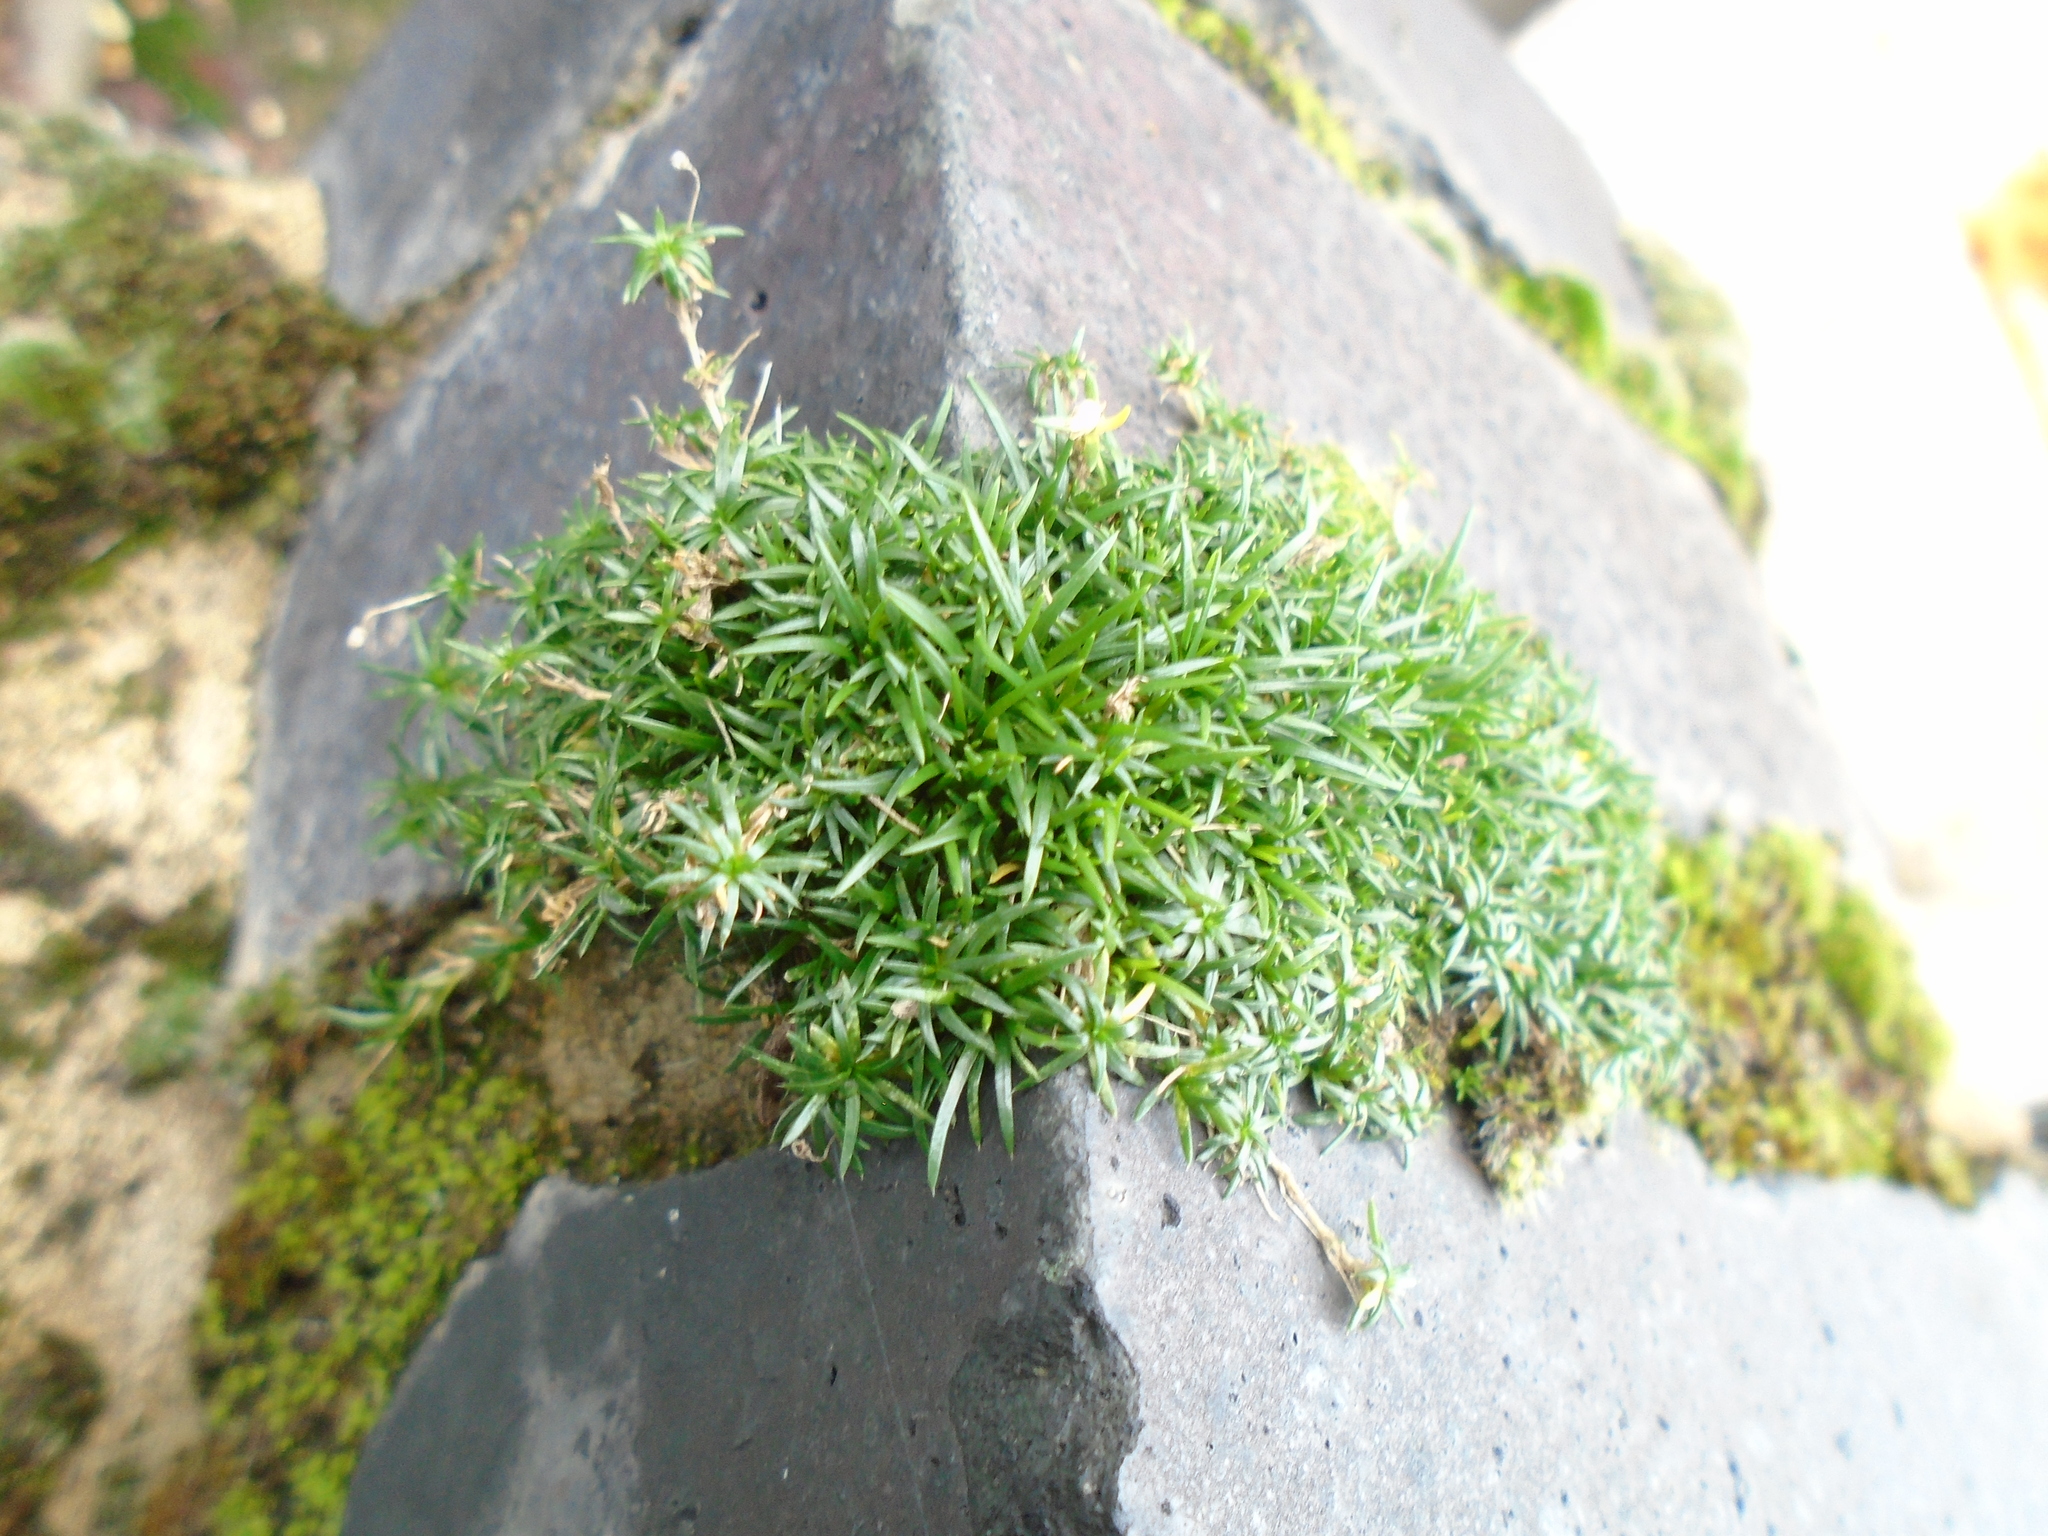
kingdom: Plantae
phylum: Tracheophyta
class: Magnoliopsida
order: Caryophyllales
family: Caryophyllaceae
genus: Sagina
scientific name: Sagina procumbens
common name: Procumbent pearlwort
